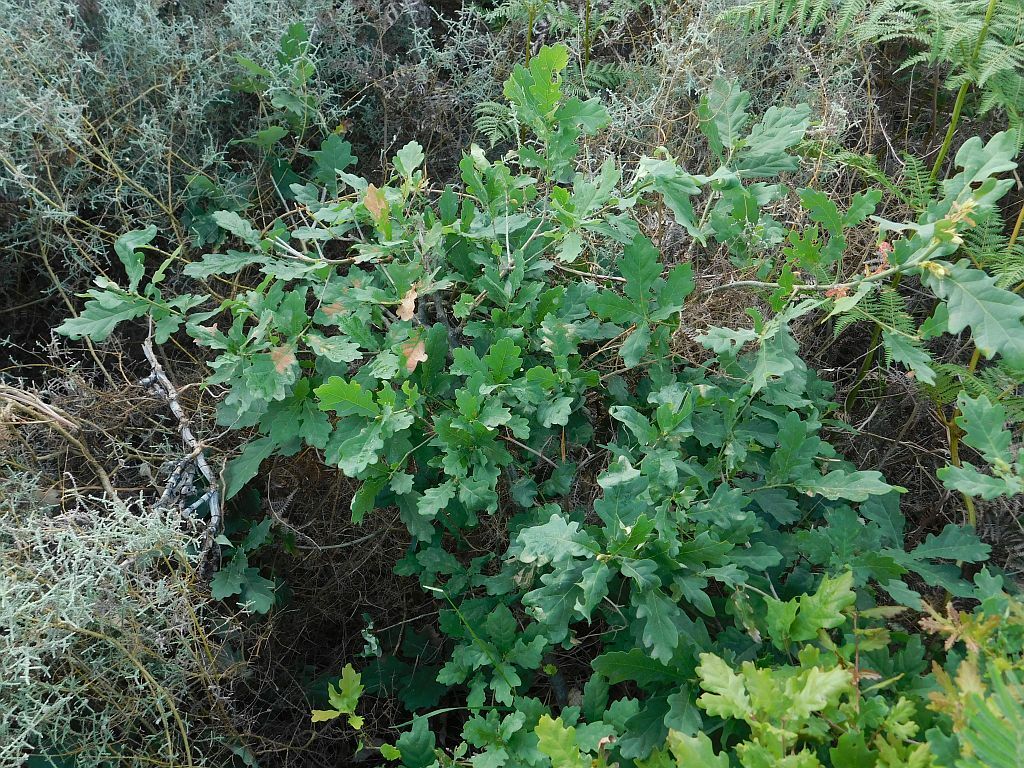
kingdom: Plantae
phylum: Tracheophyta
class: Magnoliopsida
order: Fagales
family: Fagaceae
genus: Quercus
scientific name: Quercus robur
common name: Pedunculate oak
